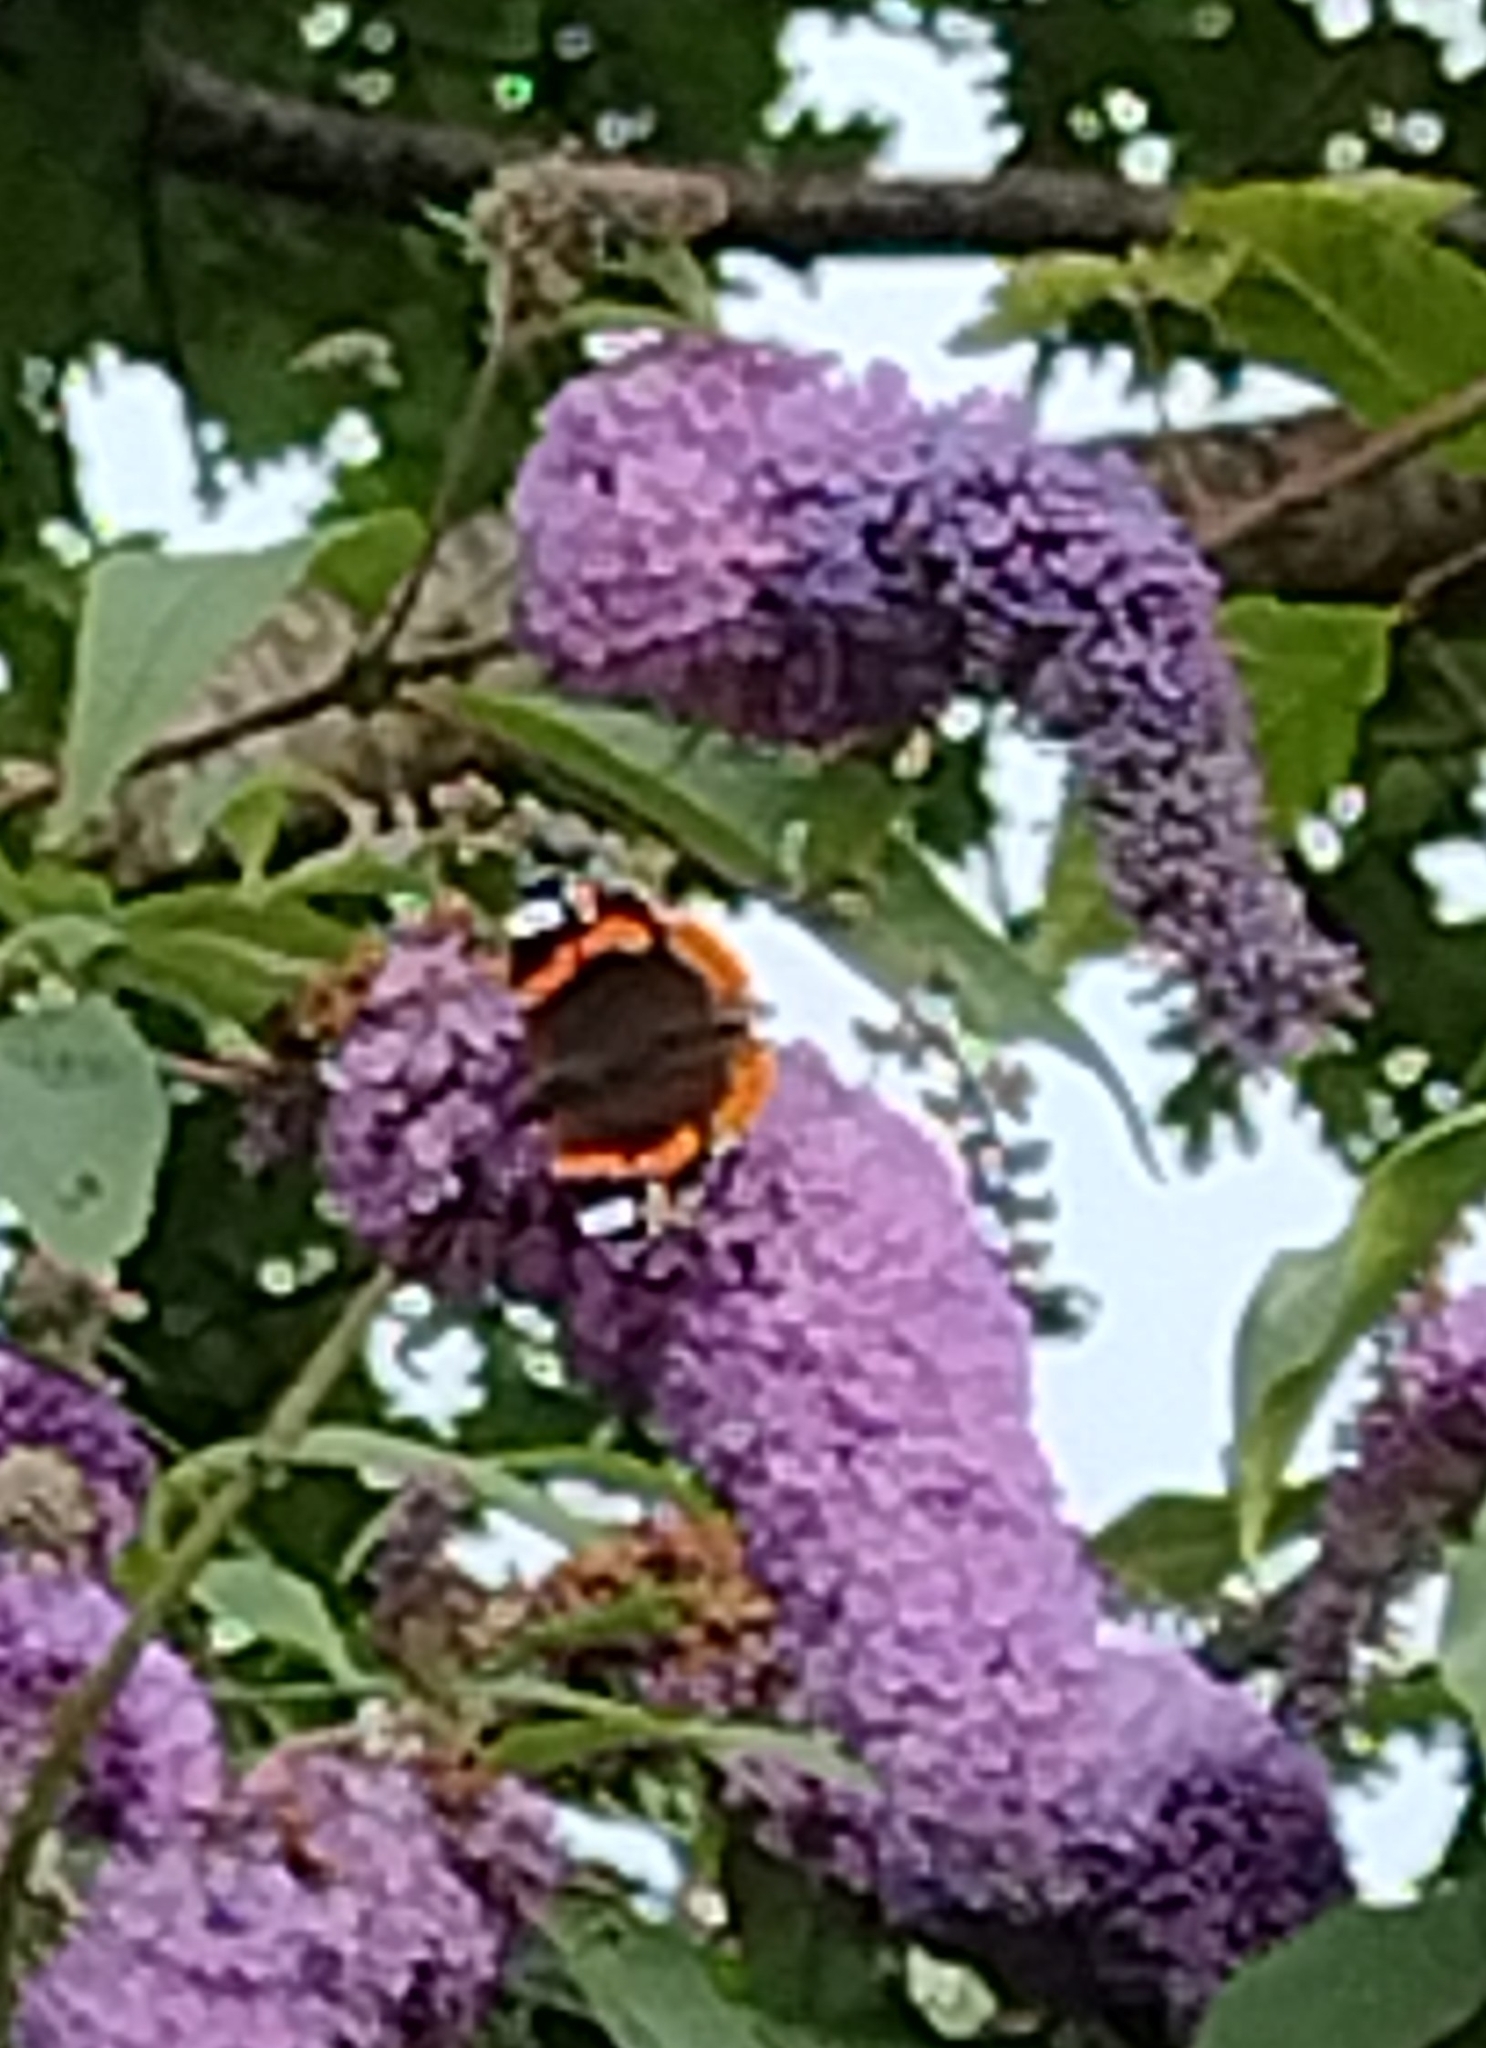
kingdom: Animalia
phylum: Arthropoda
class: Insecta
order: Lepidoptera
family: Nymphalidae
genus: Vanessa
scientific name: Vanessa atalanta
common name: Red admiral
